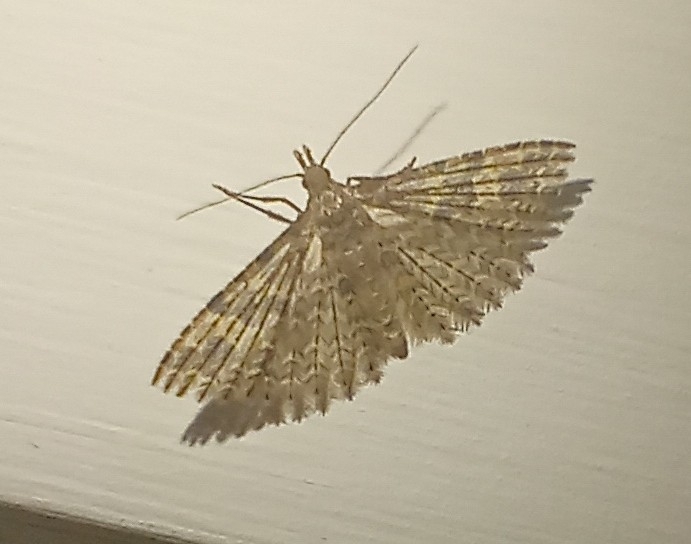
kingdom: Animalia
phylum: Arthropoda
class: Insecta
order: Lepidoptera
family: Alucitidae
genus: Alucita
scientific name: Alucita hexadactyla
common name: Twenty-plume moth
